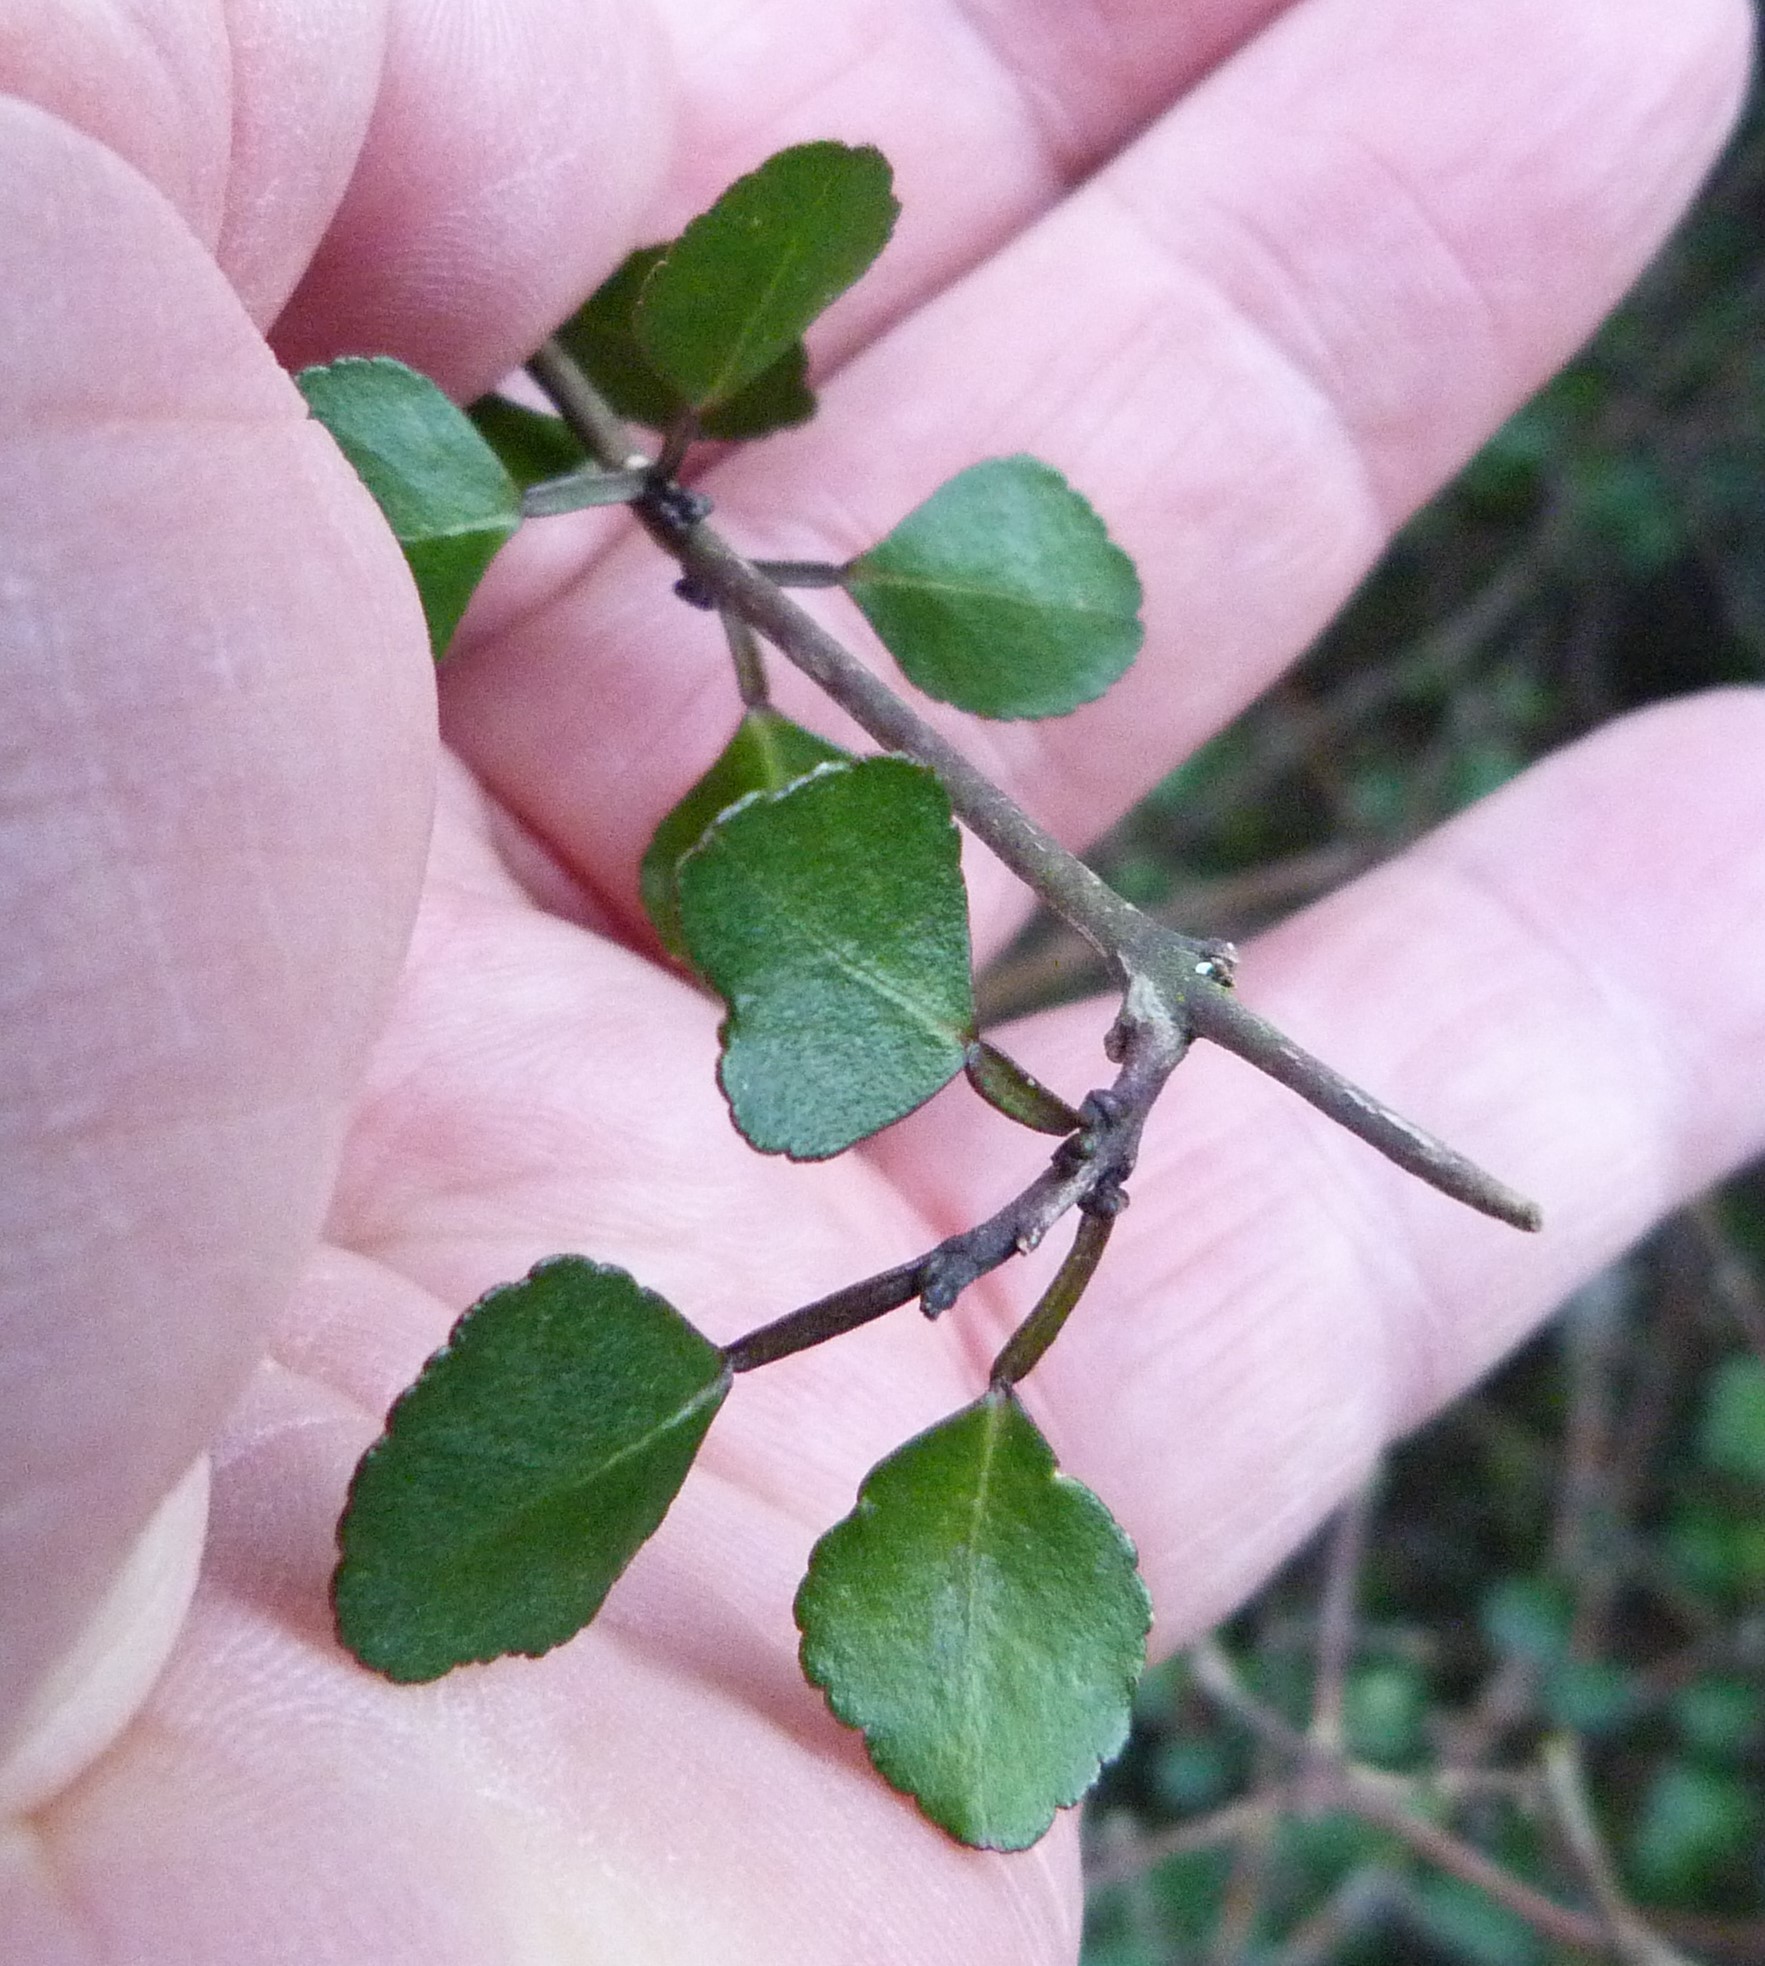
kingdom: Plantae
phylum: Tracheophyta
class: Magnoliopsida
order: Sapindales
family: Rutaceae
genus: Melicope
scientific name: Melicope simplex
